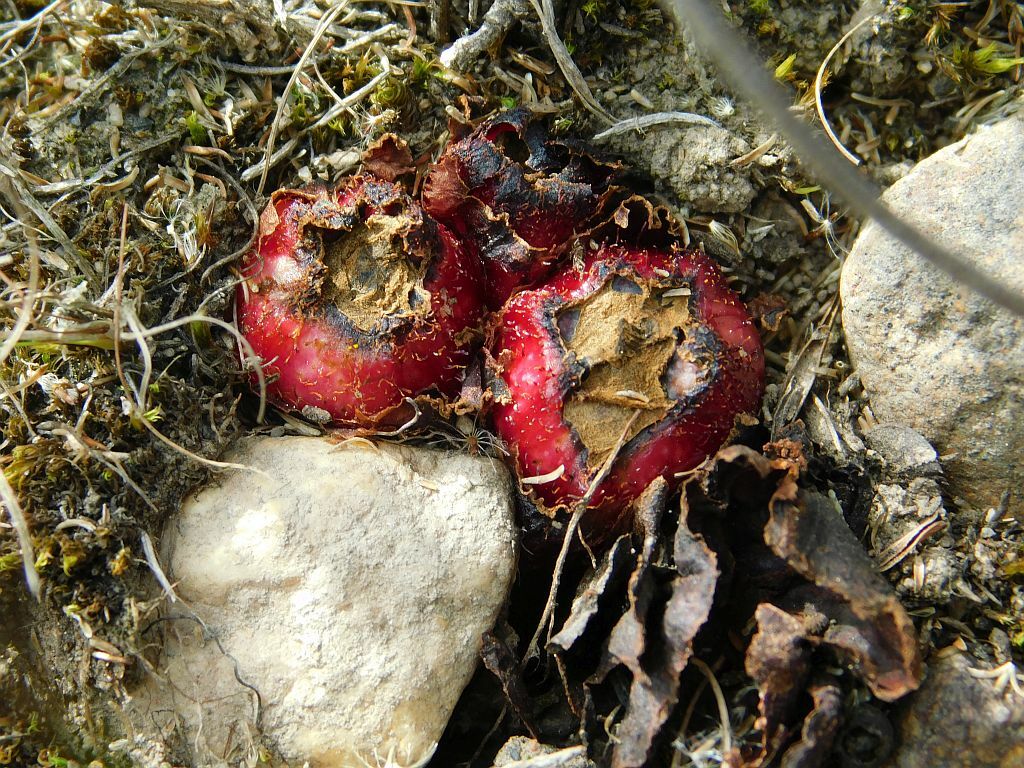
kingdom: Plantae
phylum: Tracheophyta
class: Magnoliopsida
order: Malvales
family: Cytinaceae
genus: Cytinus
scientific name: Cytinus sanguineus
